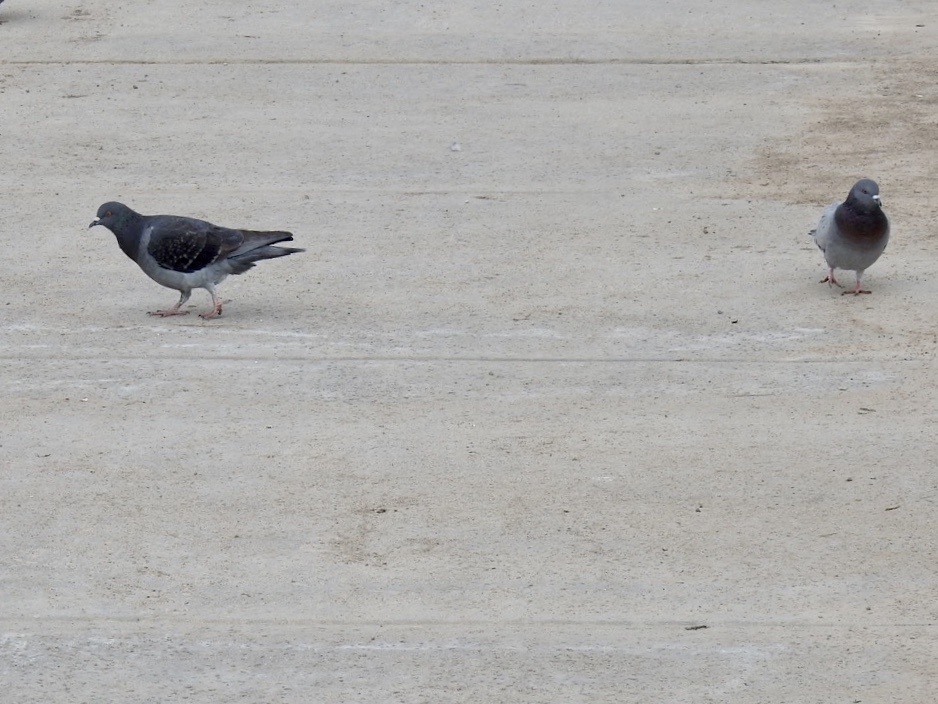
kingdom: Animalia
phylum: Chordata
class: Aves
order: Columbiformes
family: Columbidae
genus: Columba
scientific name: Columba livia
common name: Rock pigeon
